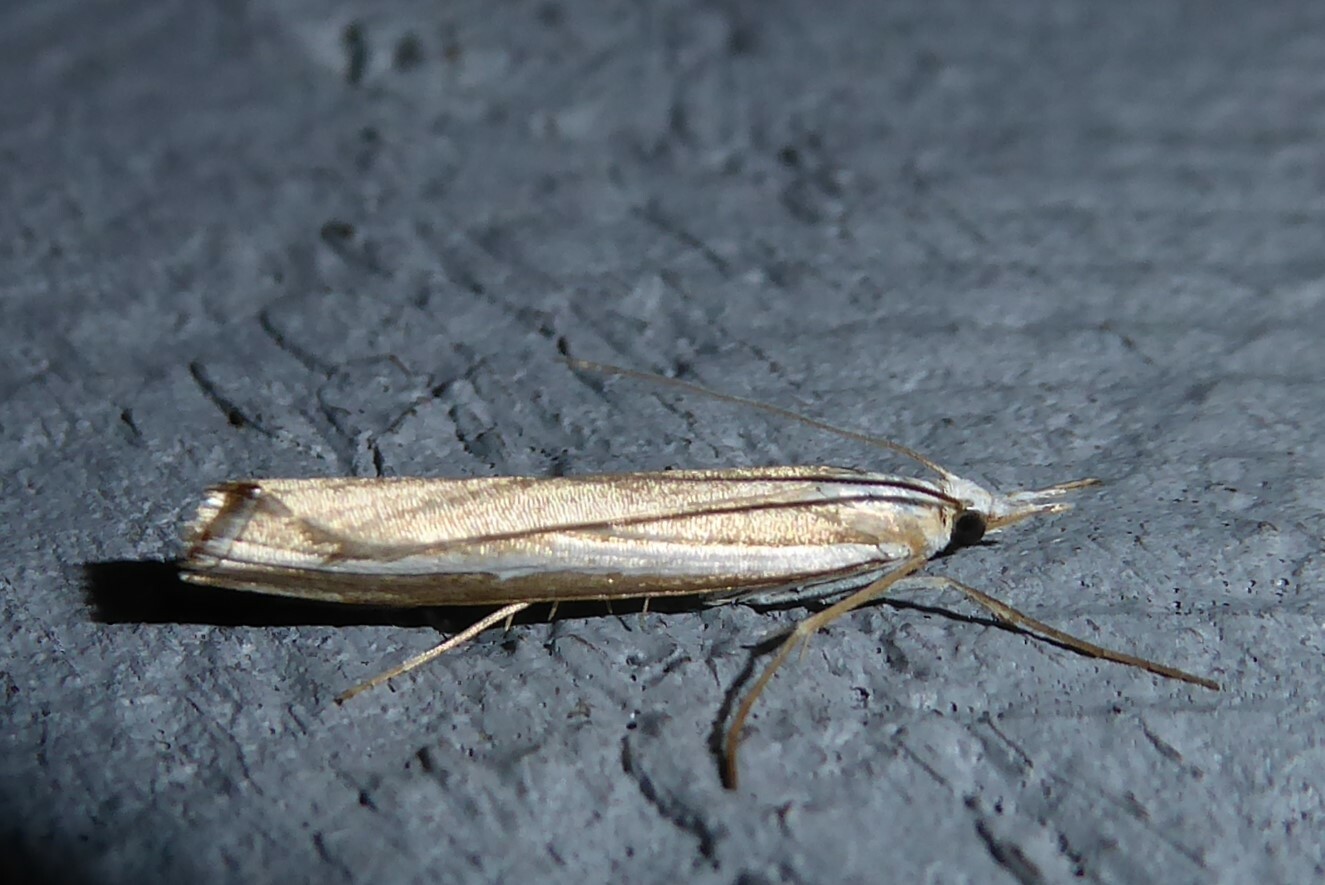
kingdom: Animalia
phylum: Arthropoda
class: Insecta
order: Lepidoptera
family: Crambidae
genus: Orocrambus
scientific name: Orocrambus vittellus
